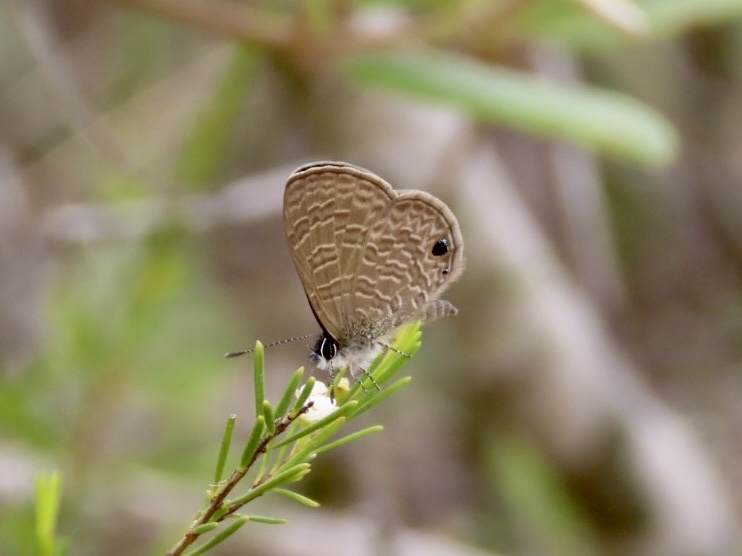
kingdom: Animalia
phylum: Arthropoda
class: Insecta
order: Lepidoptera
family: Lycaenidae
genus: Prosotas
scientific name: Prosotas dubiosa
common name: Tailless lineblue
